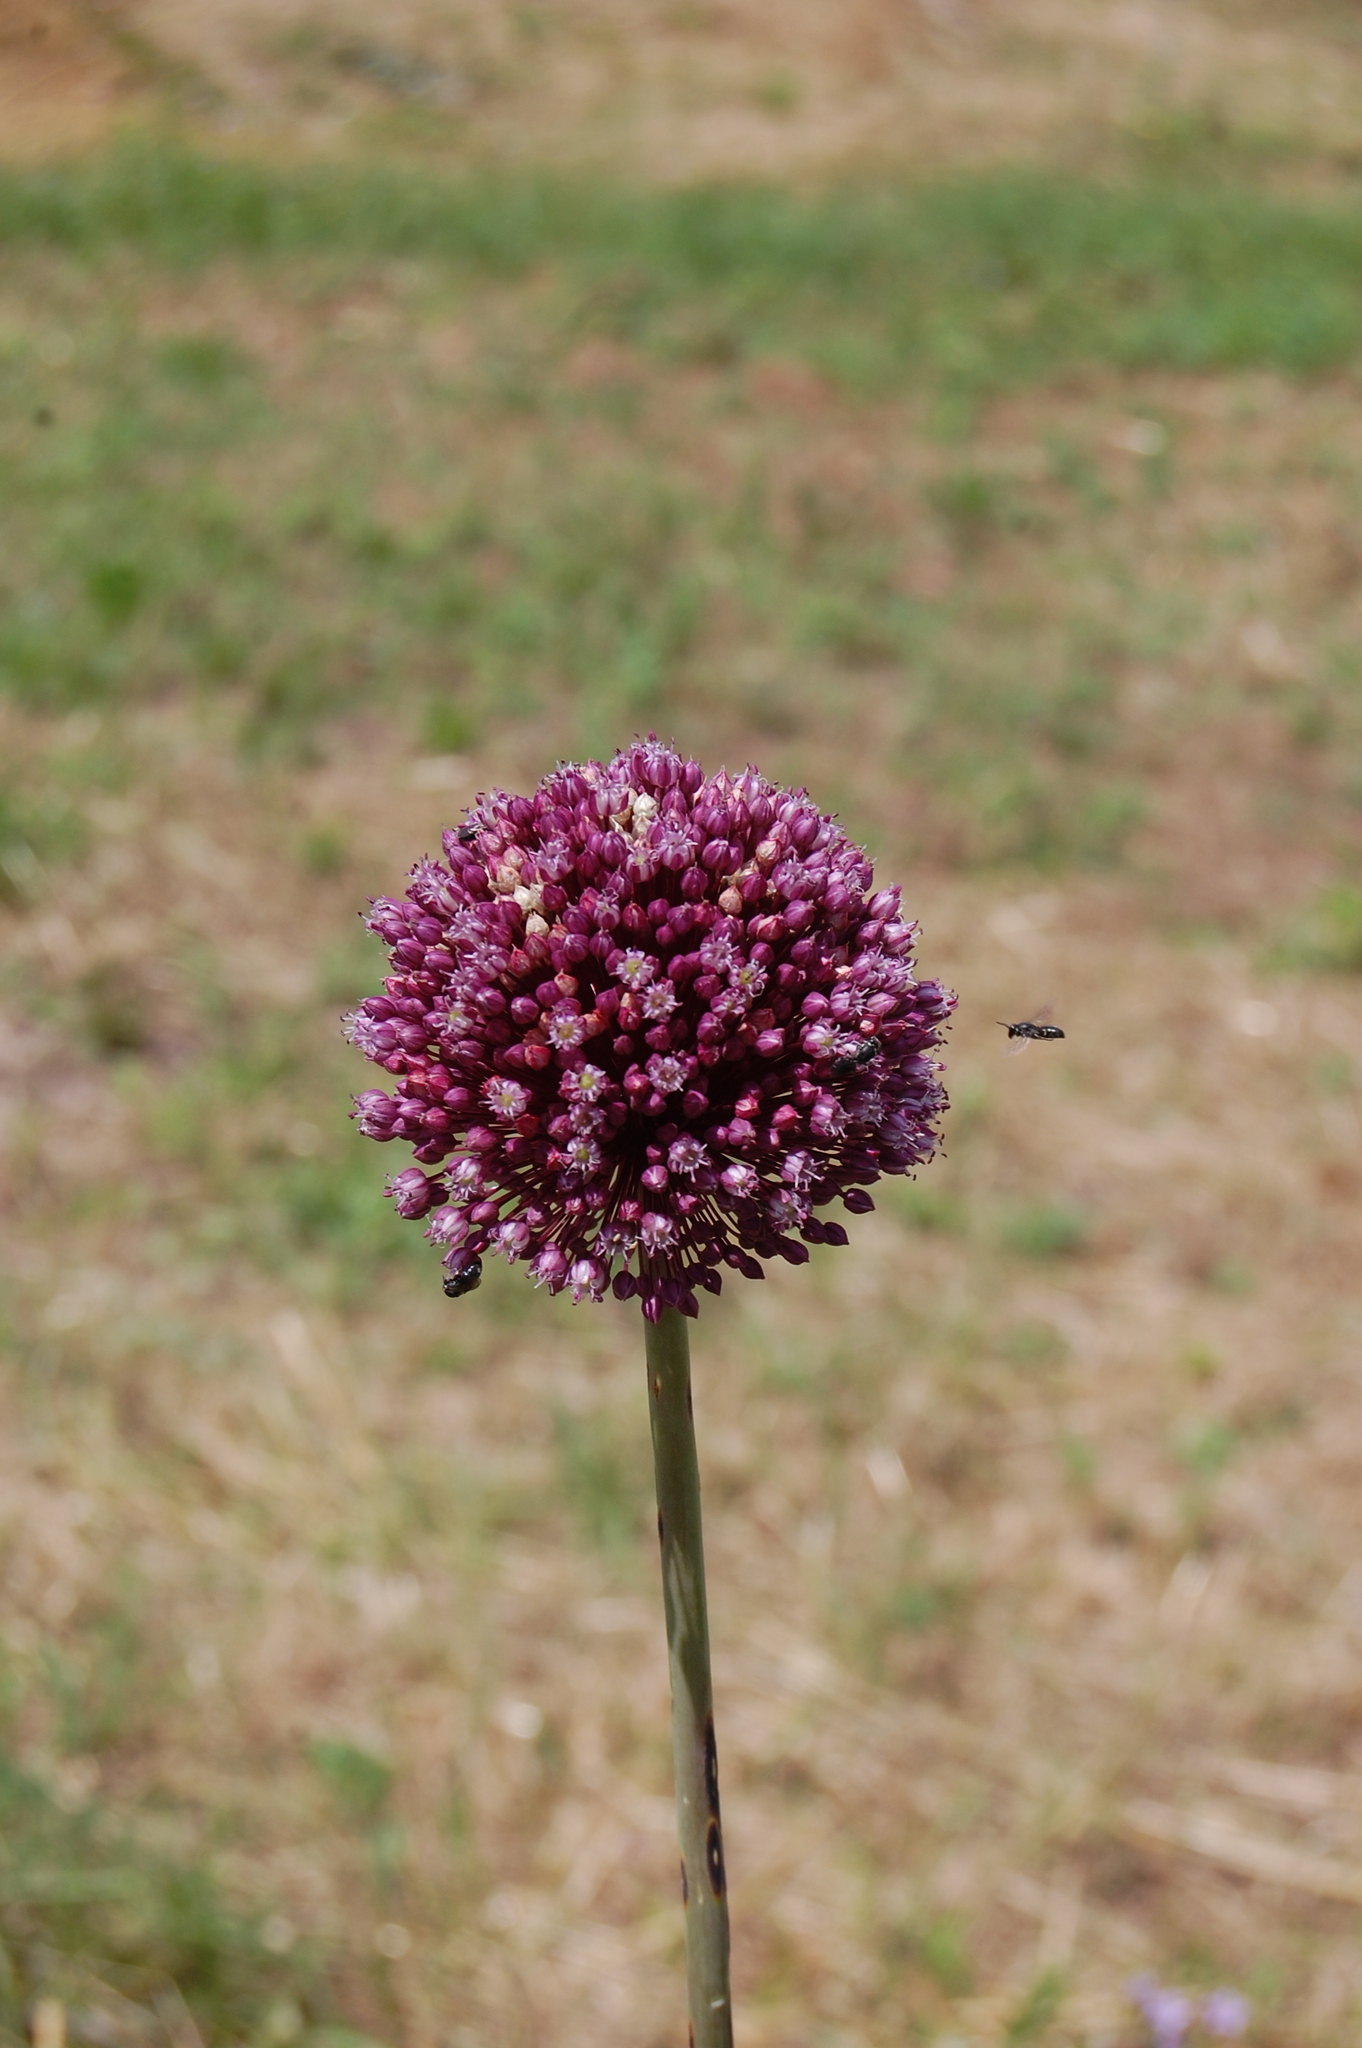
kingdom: Plantae
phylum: Tracheophyta
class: Liliopsida
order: Asparagales
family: Amaryllidaceae
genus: Allium
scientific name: Allium ampeloprasum
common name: Wild leek
